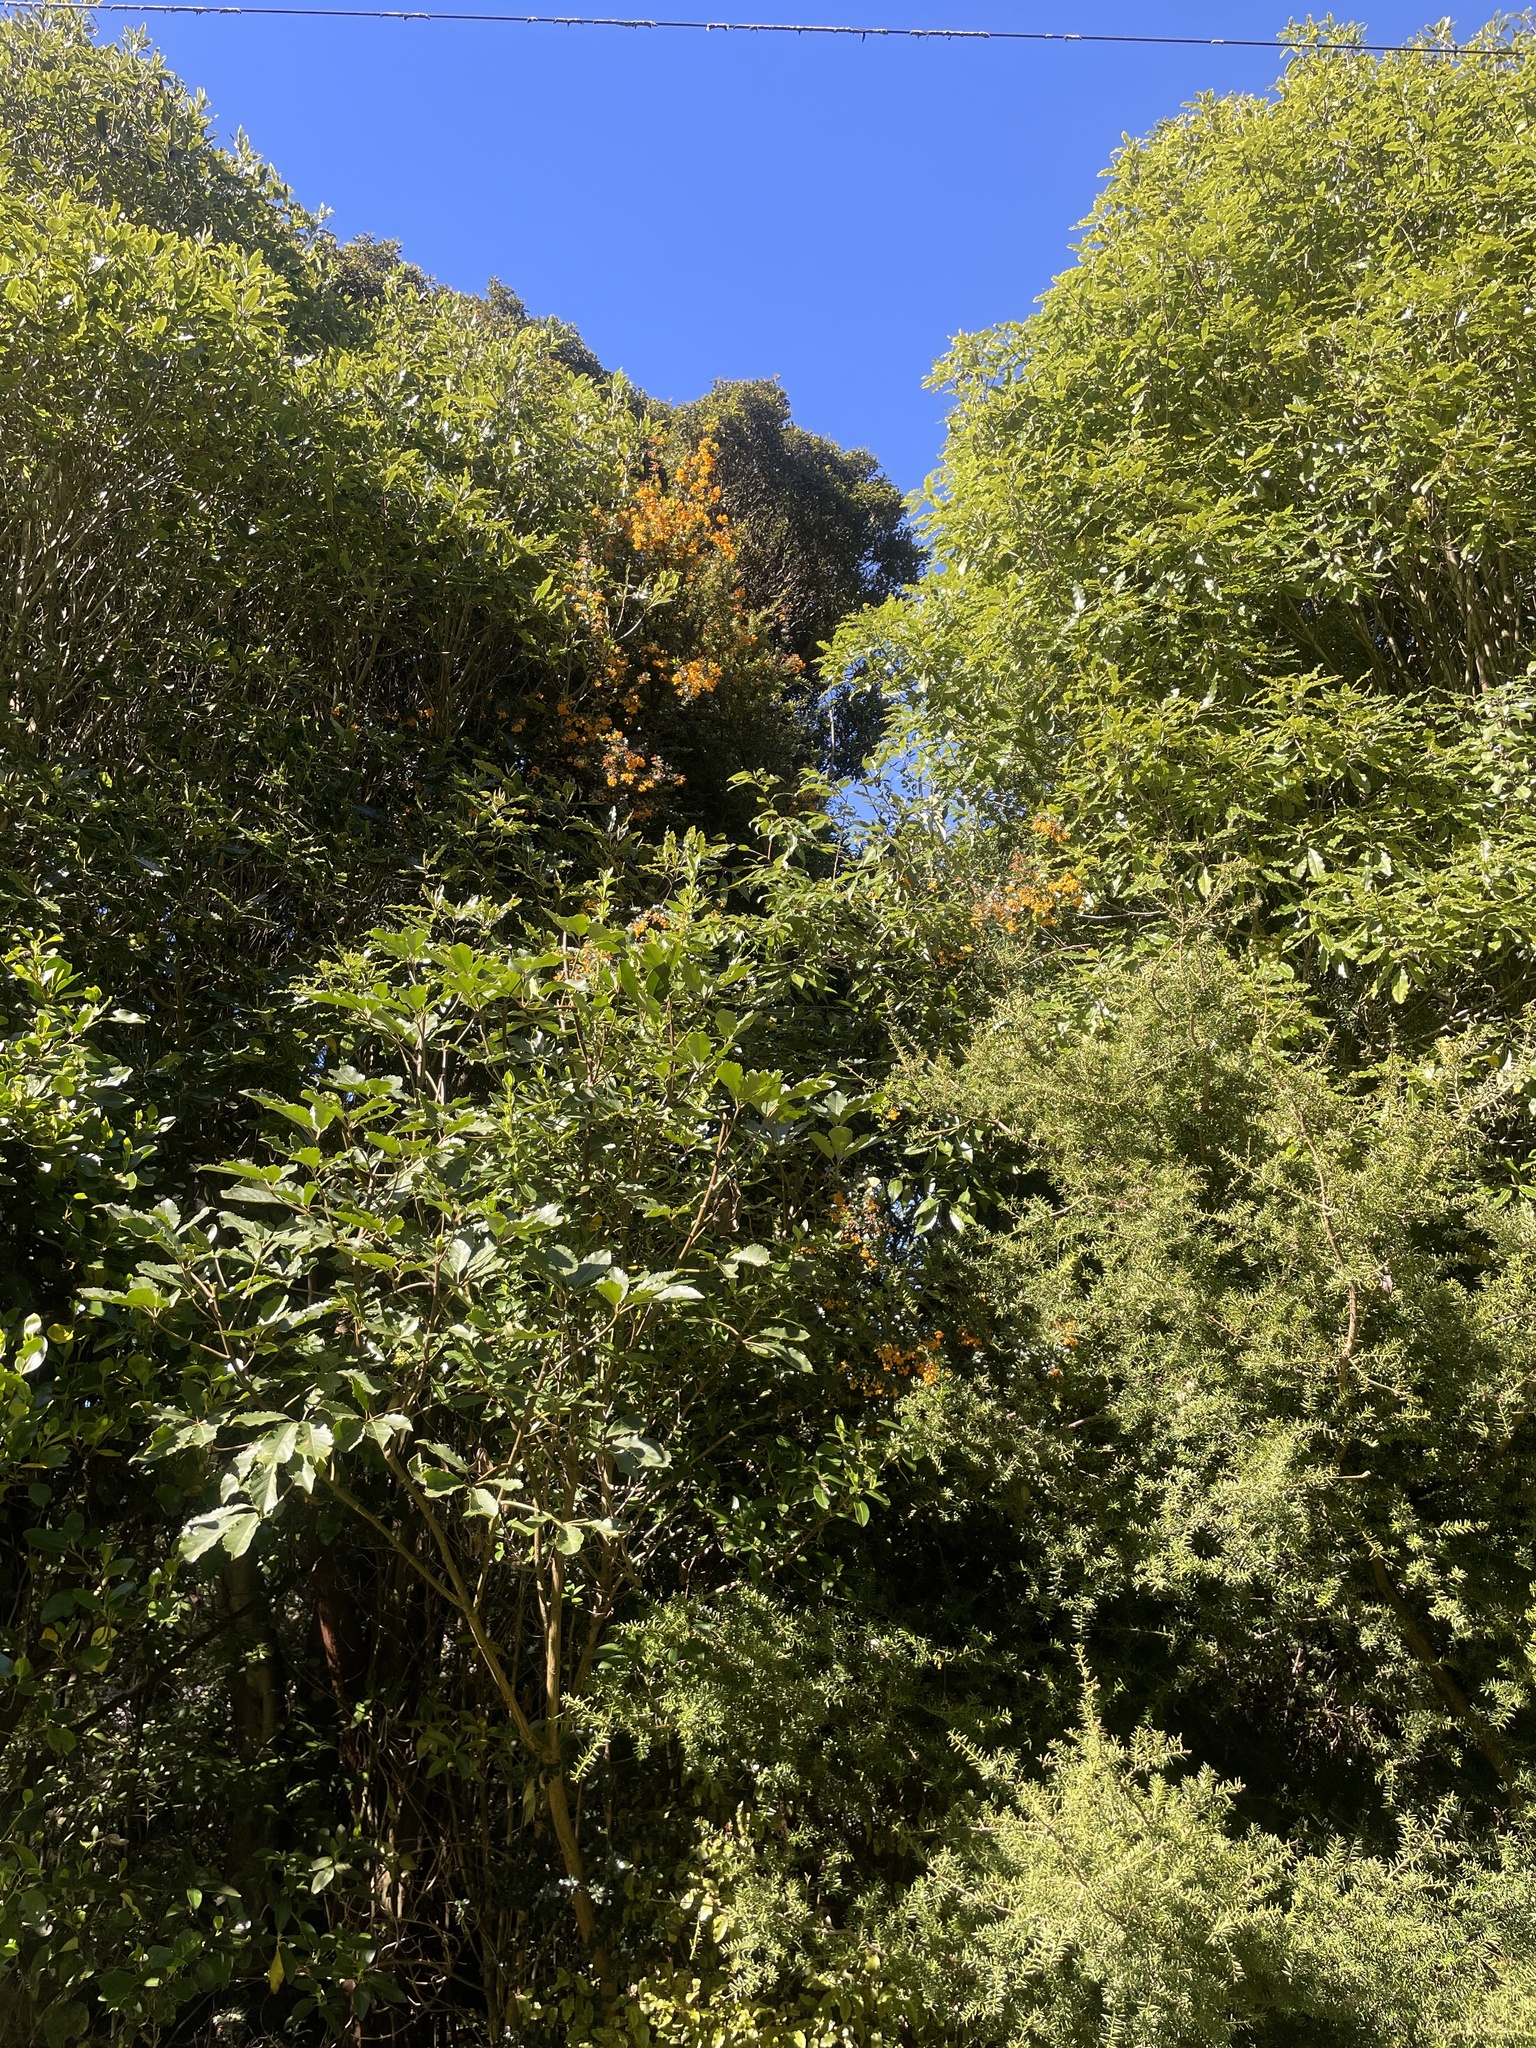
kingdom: Plantae
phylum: Tracheophyta
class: Magnoliopsida
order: Ranunculales
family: Berberidaceae
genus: Berberis
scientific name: Berberis darwinii
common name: Darwin's barberry
